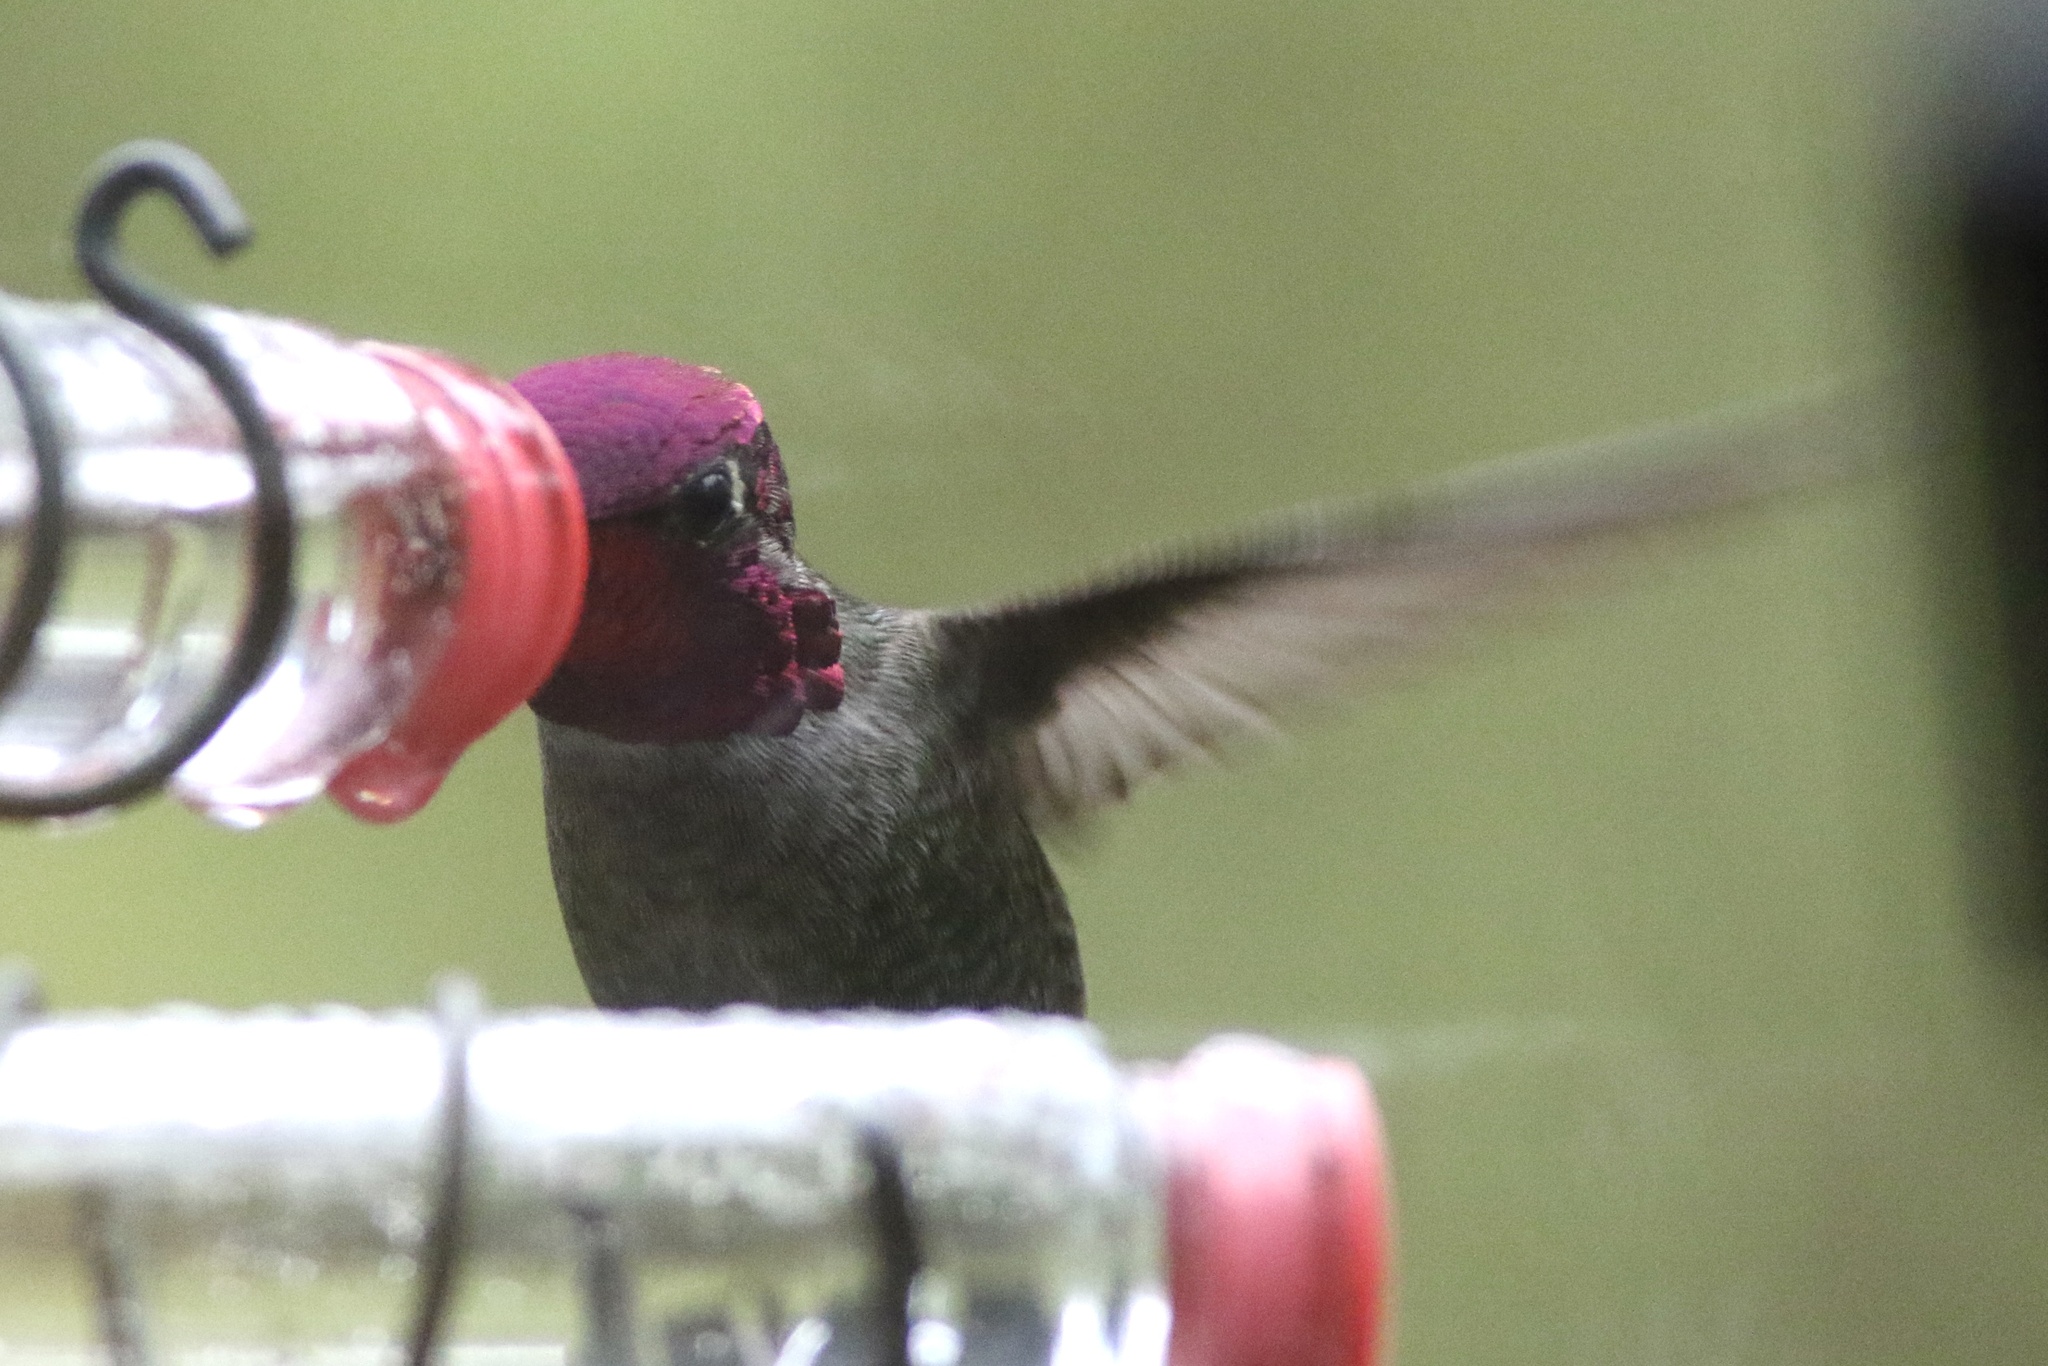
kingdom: Animalia
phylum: Chordata
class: Aves
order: Apodiformes
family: Trochilidae
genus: Calypte
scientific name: Calypte anna
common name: Anna's hummingbird
